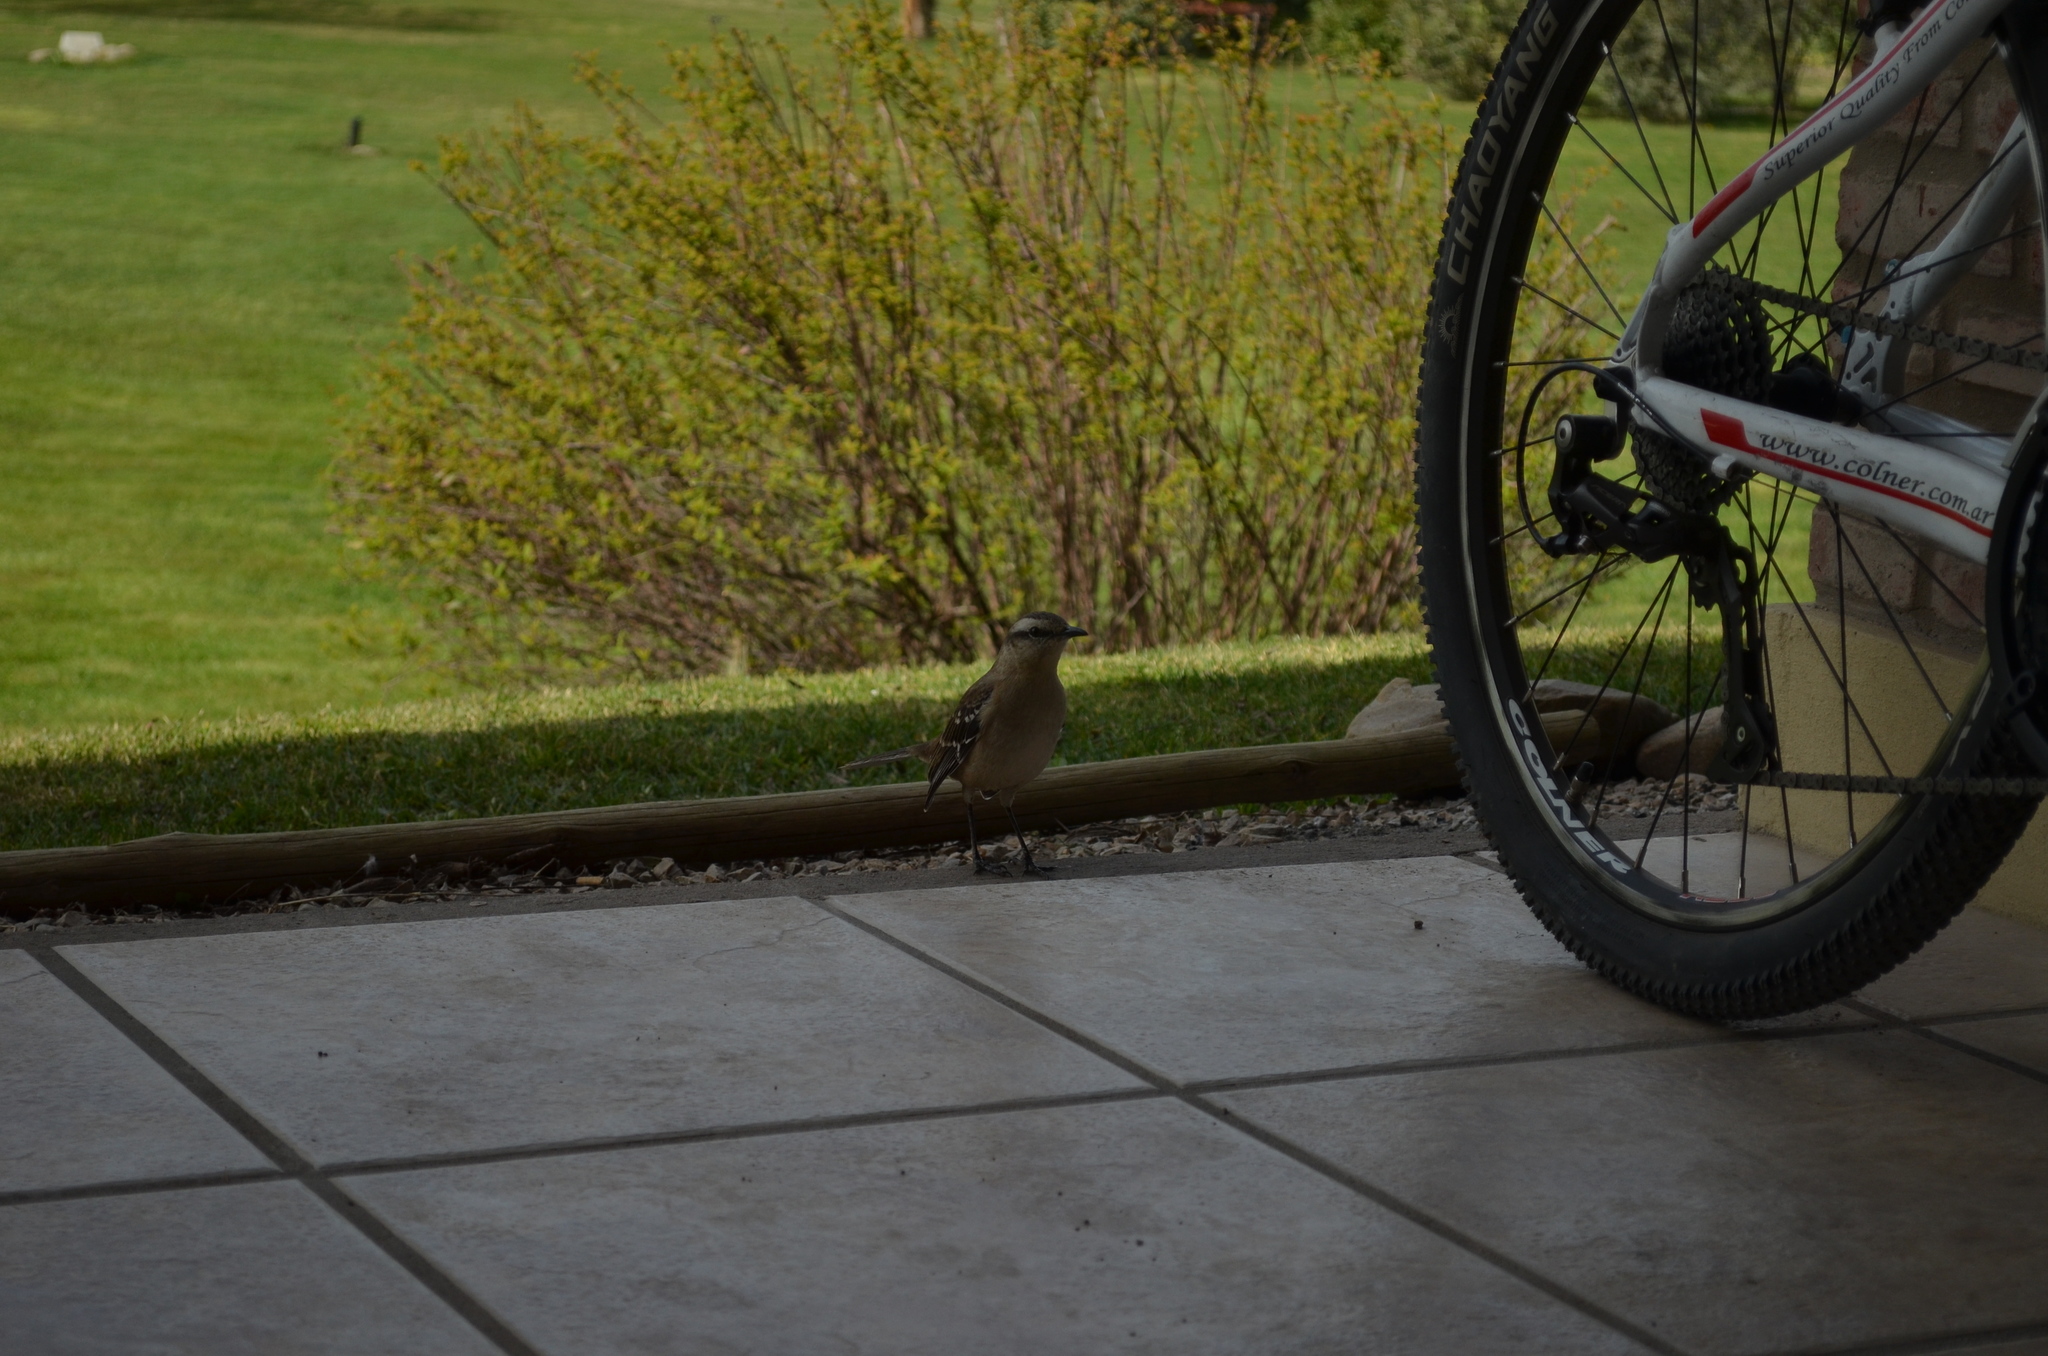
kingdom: Animalia
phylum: Chordata
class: Aves
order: Passeriformes
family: Mimidae
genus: Mimus
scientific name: Mimus saturninus
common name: Chalk-browed mockingbird
